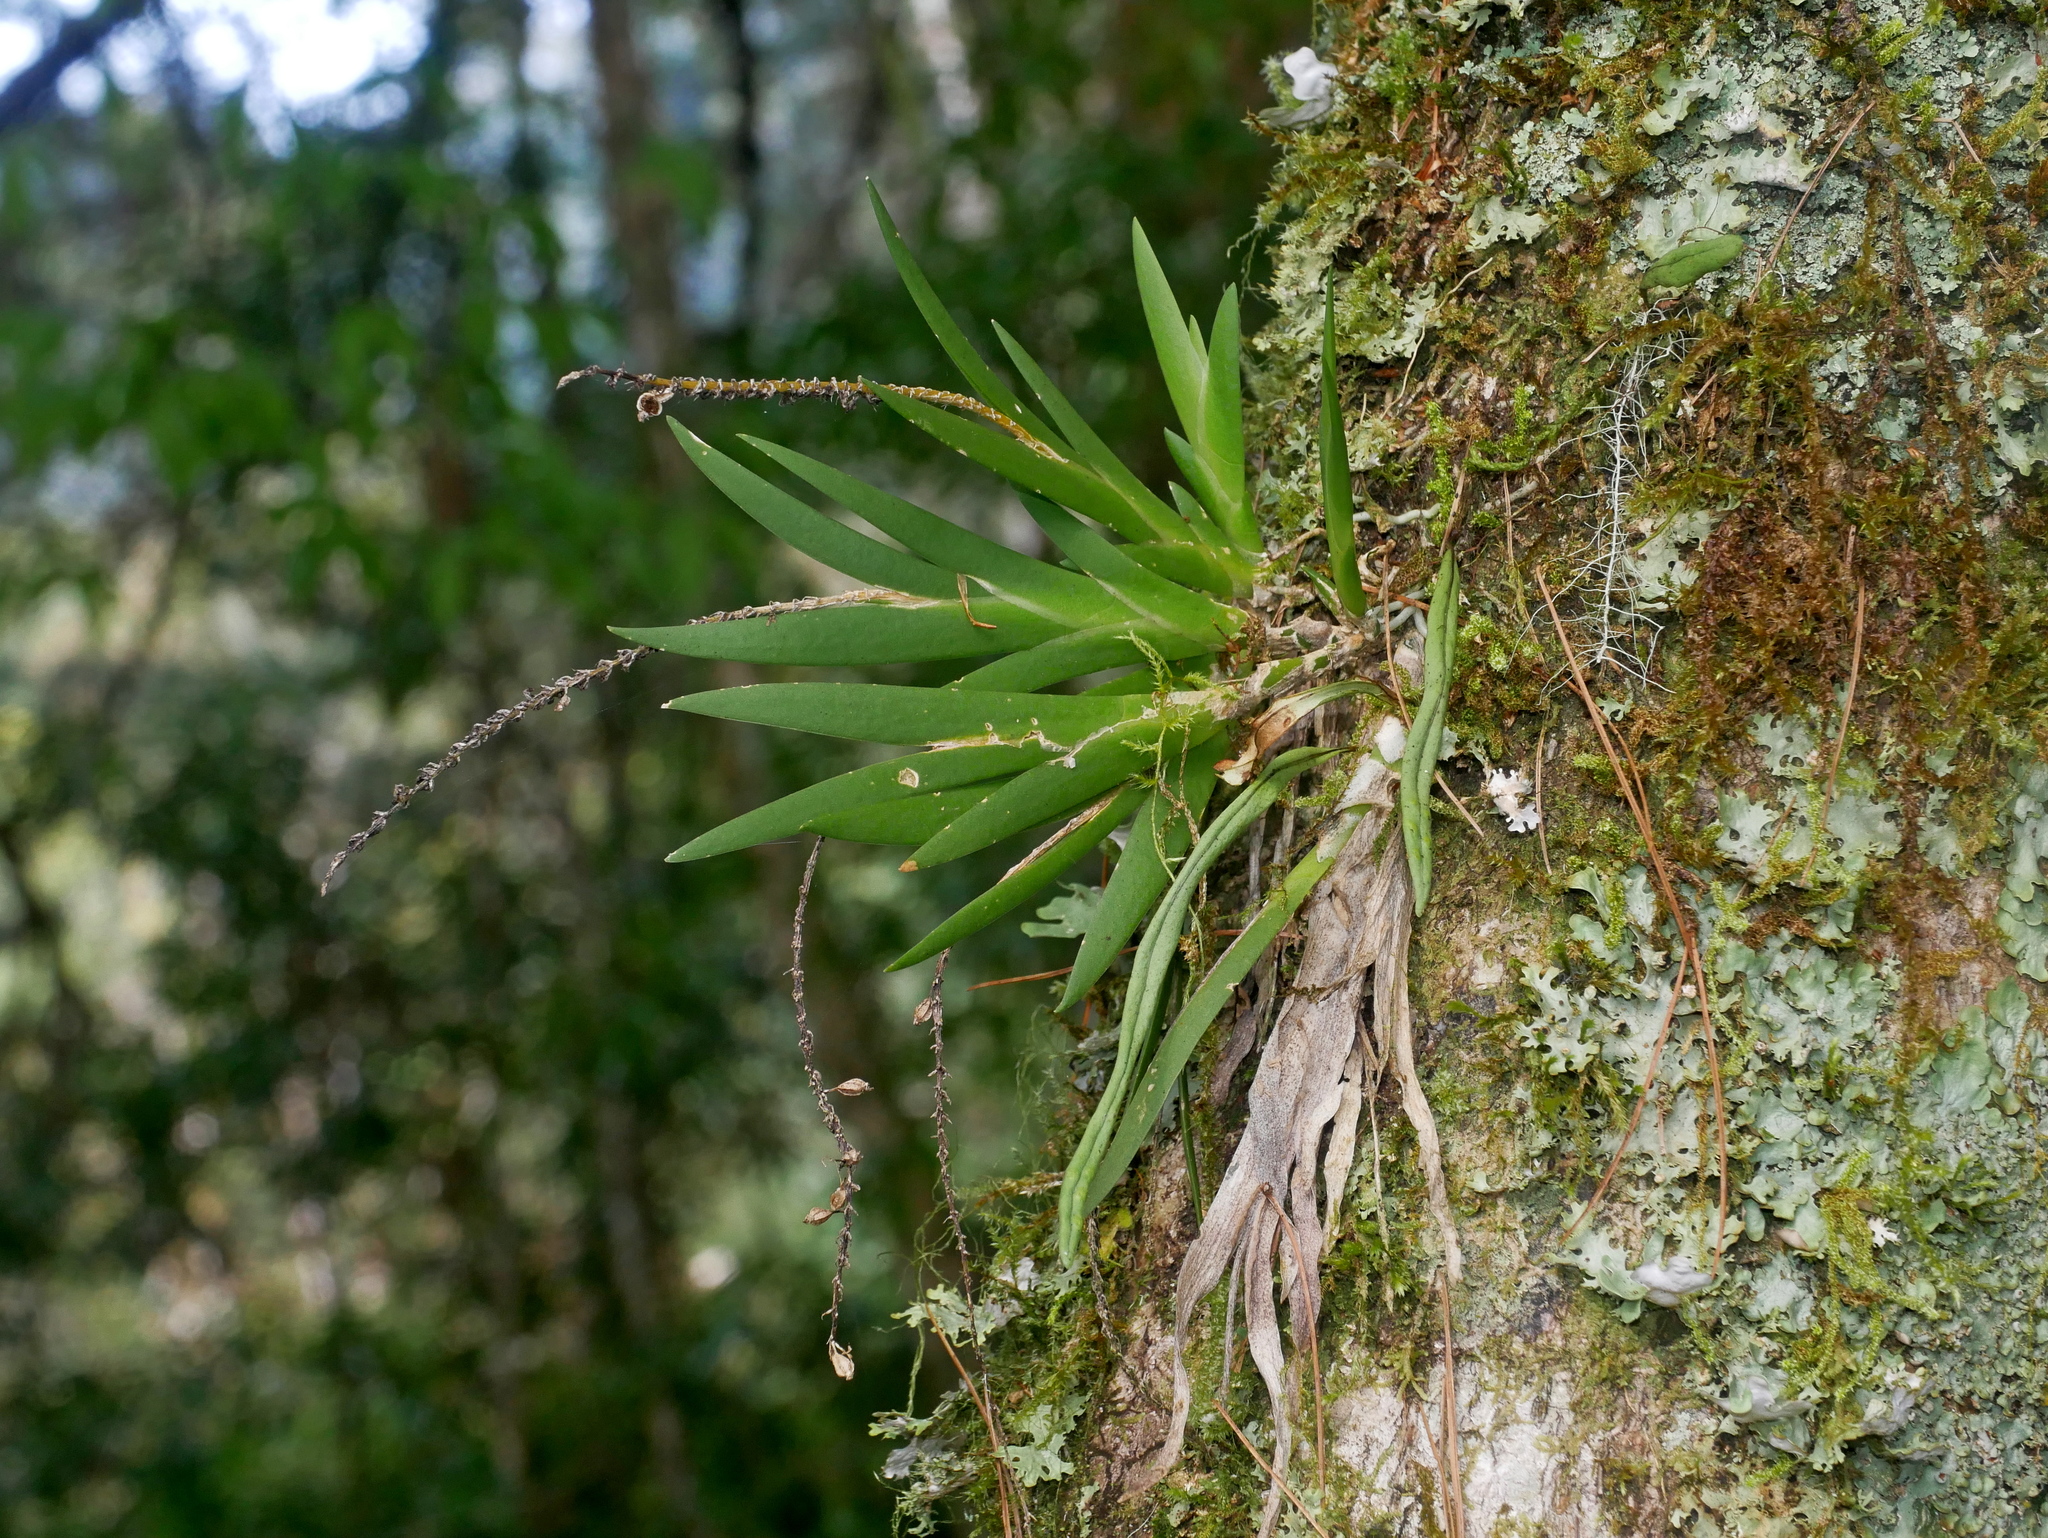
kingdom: Plantae
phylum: Tracheophyta
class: Liliopsida
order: Asparagales
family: Orchidaceae
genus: Oberonia
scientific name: Oberonia caulescens
